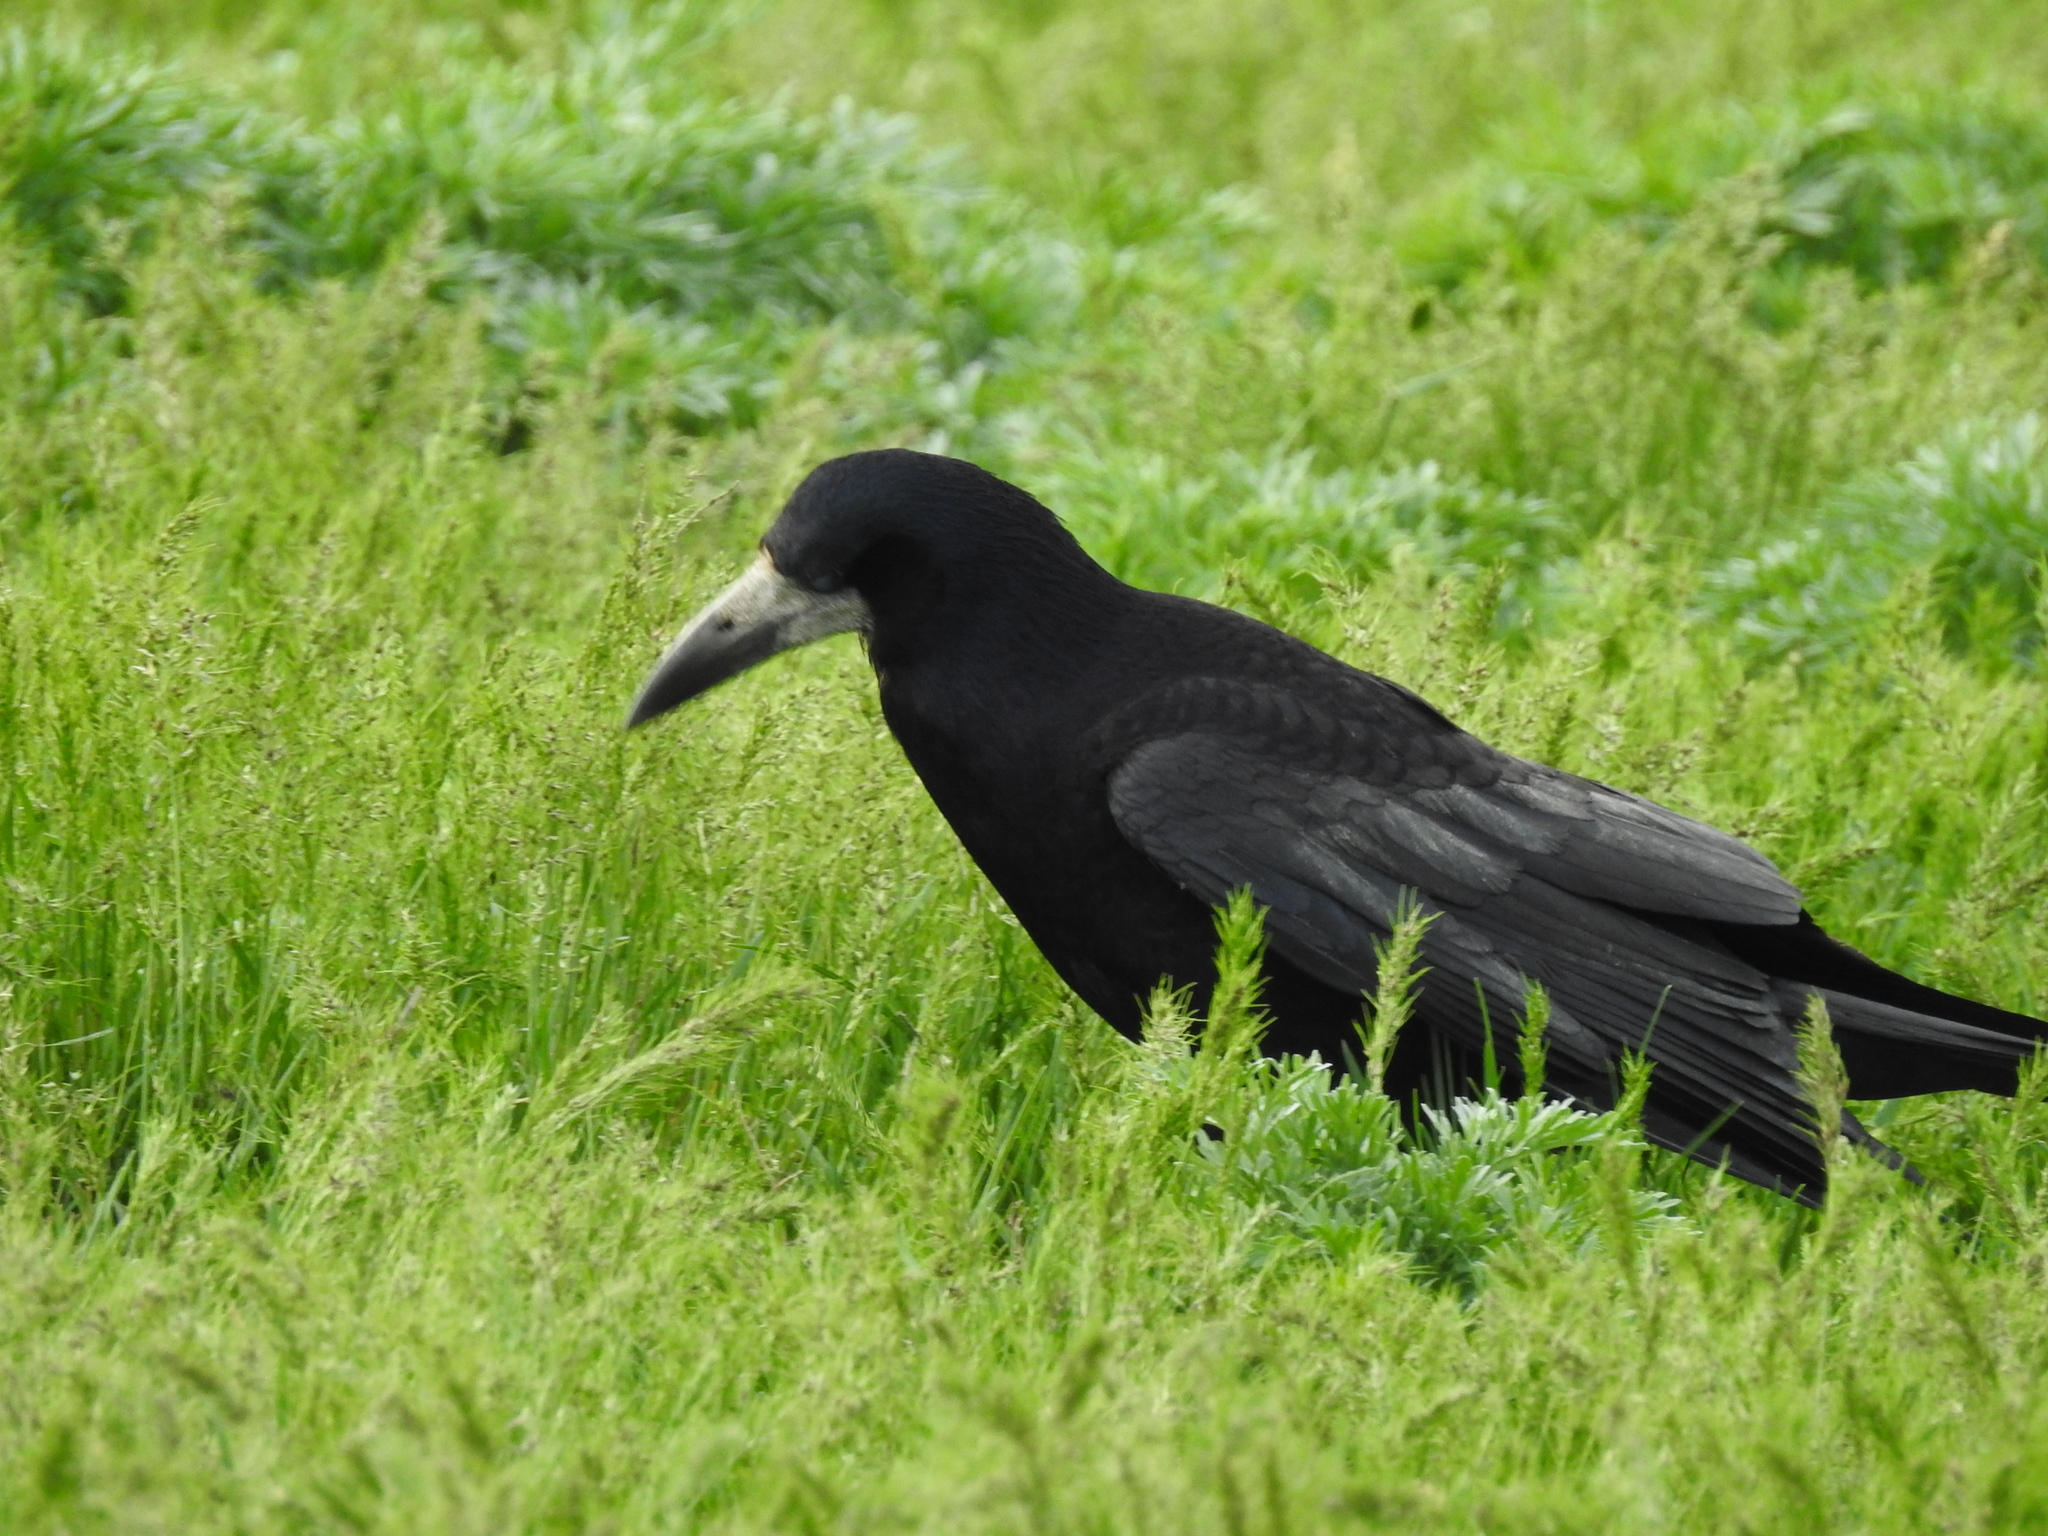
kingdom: Animalia
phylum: Chordata
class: Aves
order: Passeriformes
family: Corvidae
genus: Corvus
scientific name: Corvus frugilegus
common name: Rook
